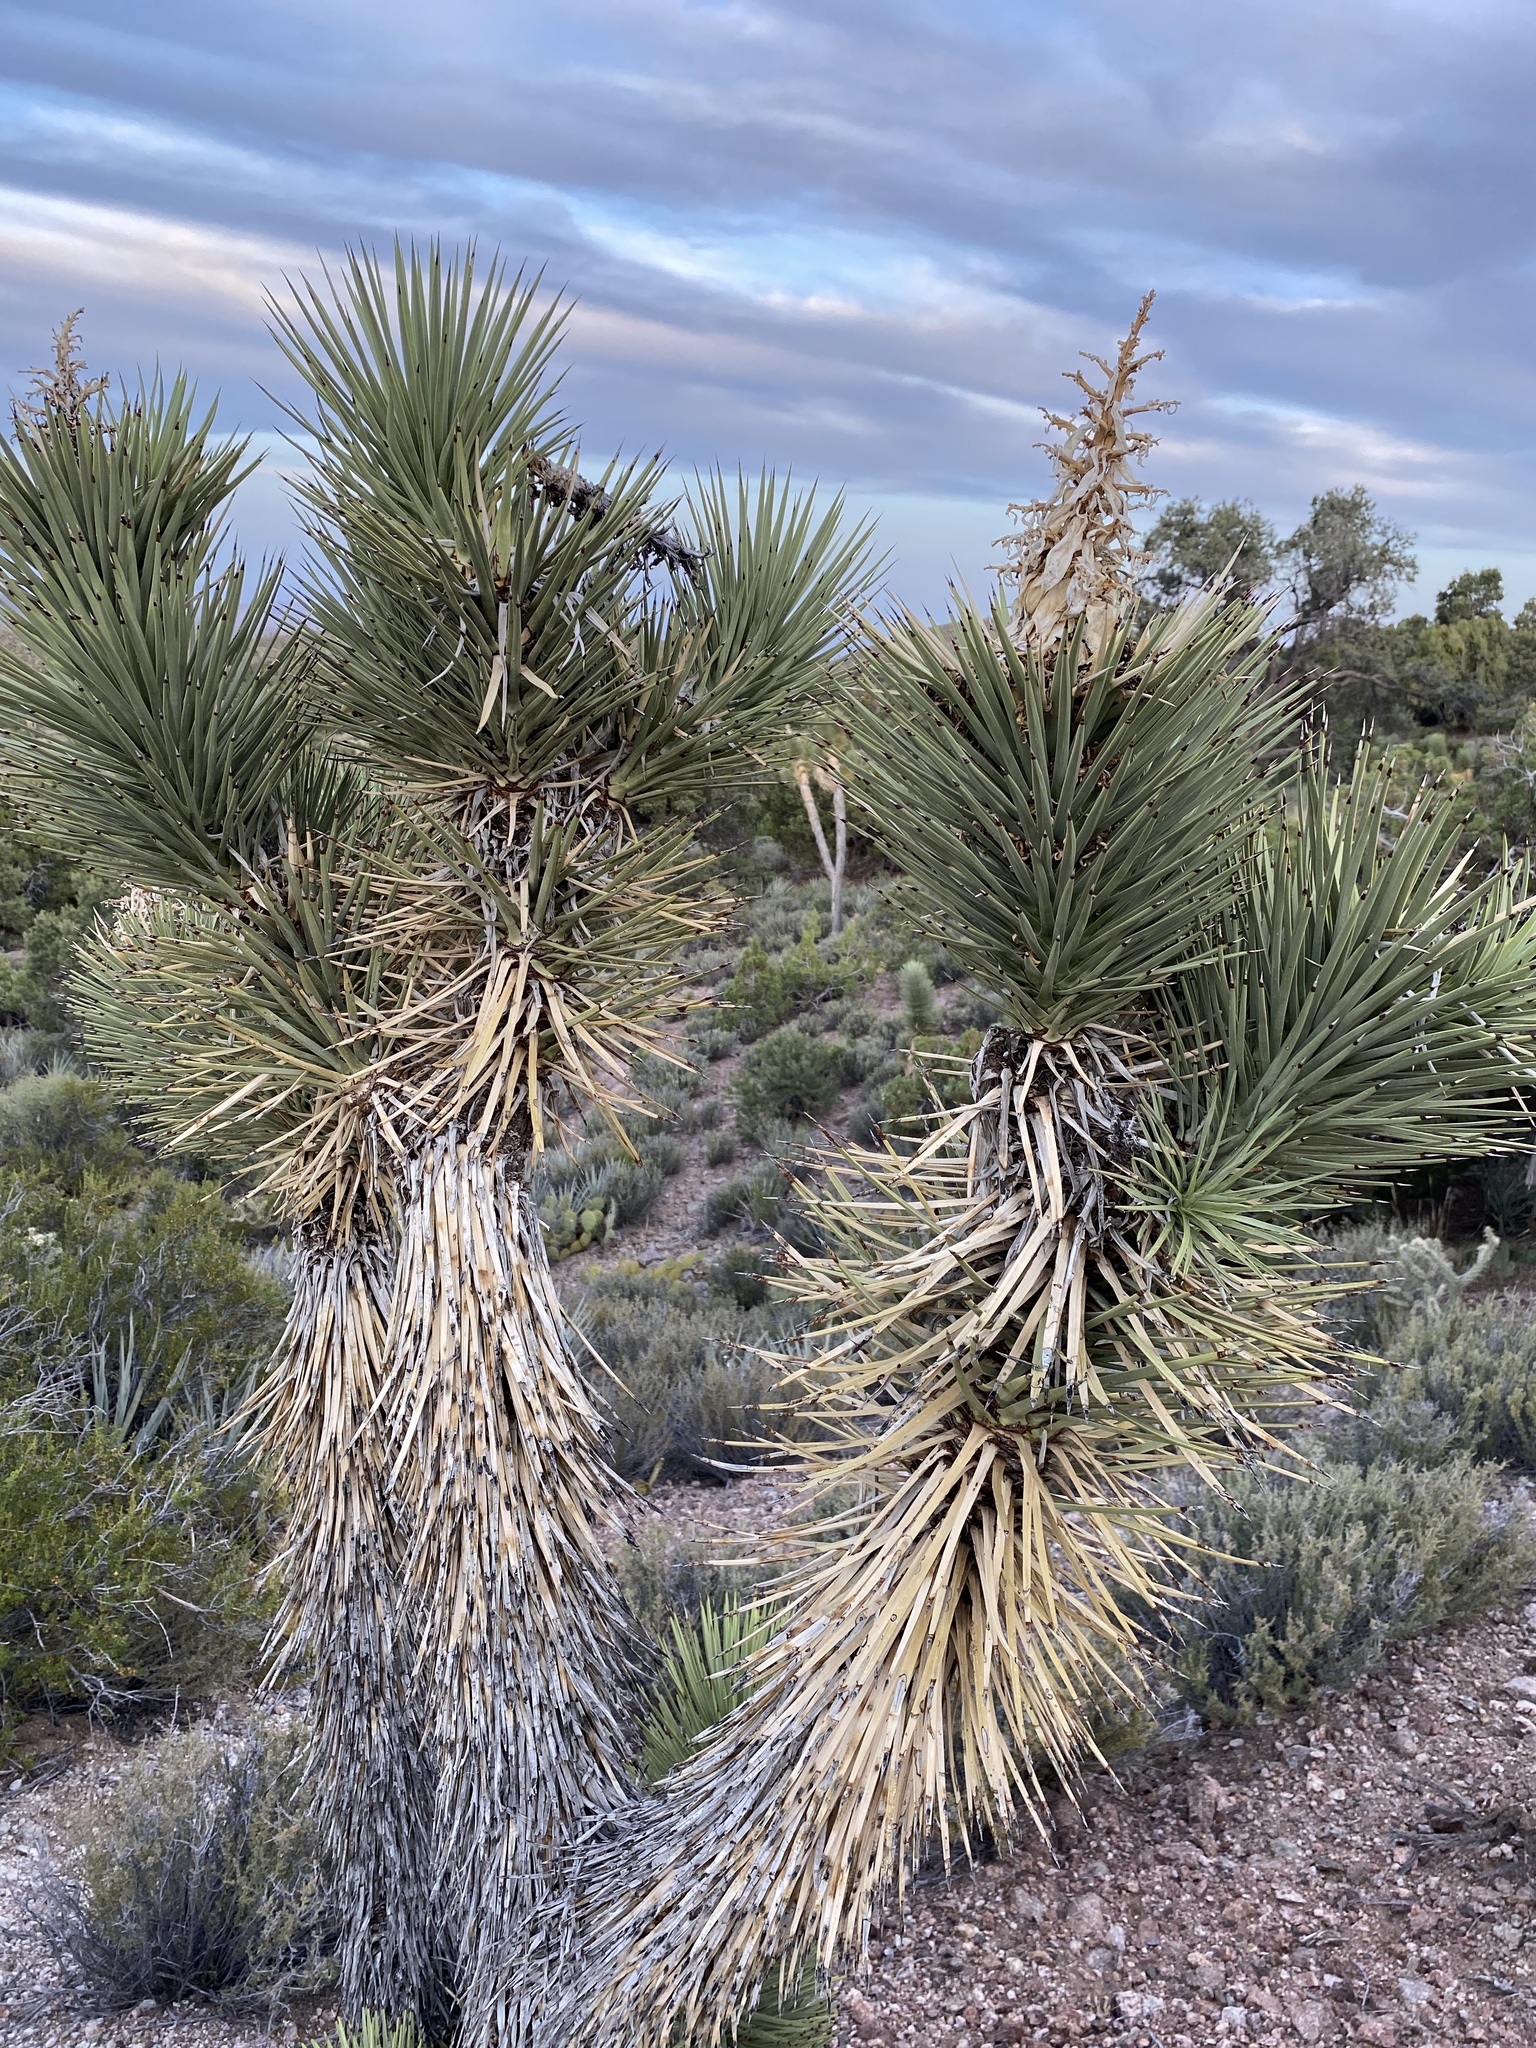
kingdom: Plantae
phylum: Tracheophyta
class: Liliopsida
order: Asparagales
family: Asparagaceae
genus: Yucca
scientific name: Yucca brevifolia
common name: Joshua tree
